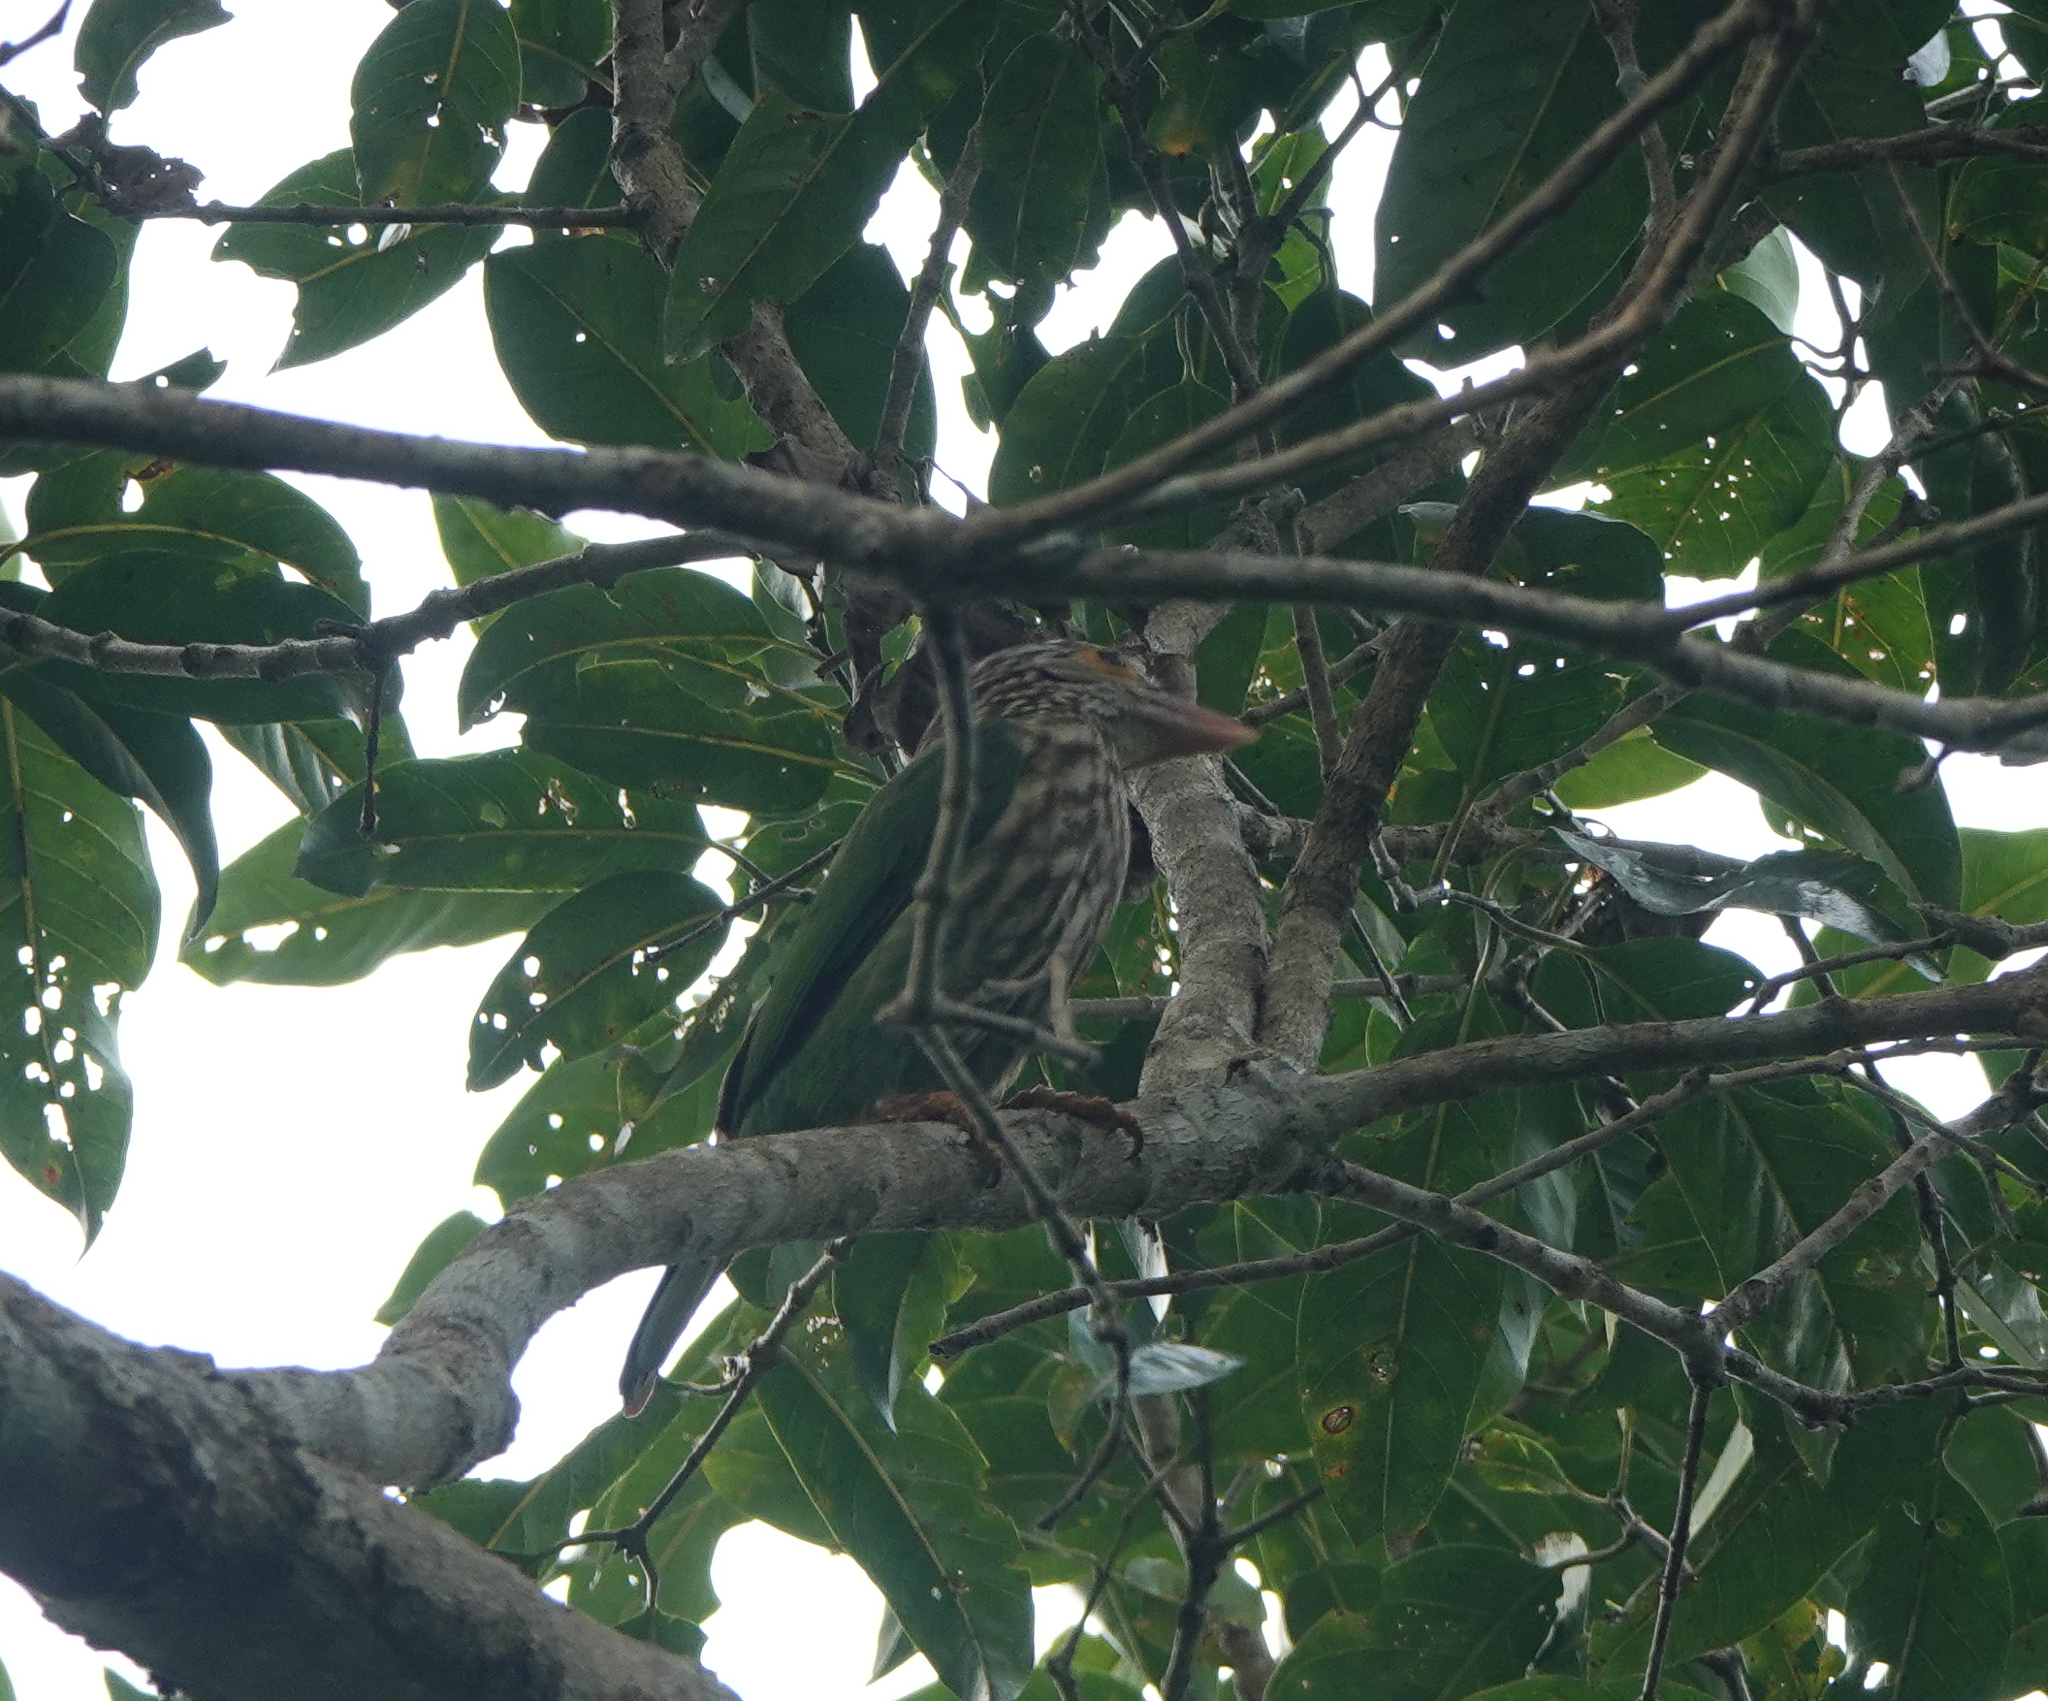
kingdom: Animalia
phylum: Chordata
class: Aves
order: Piciformes
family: Megalaimidae
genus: Psilopogon
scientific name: Psilopogon lineatus
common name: Lineated barbet
